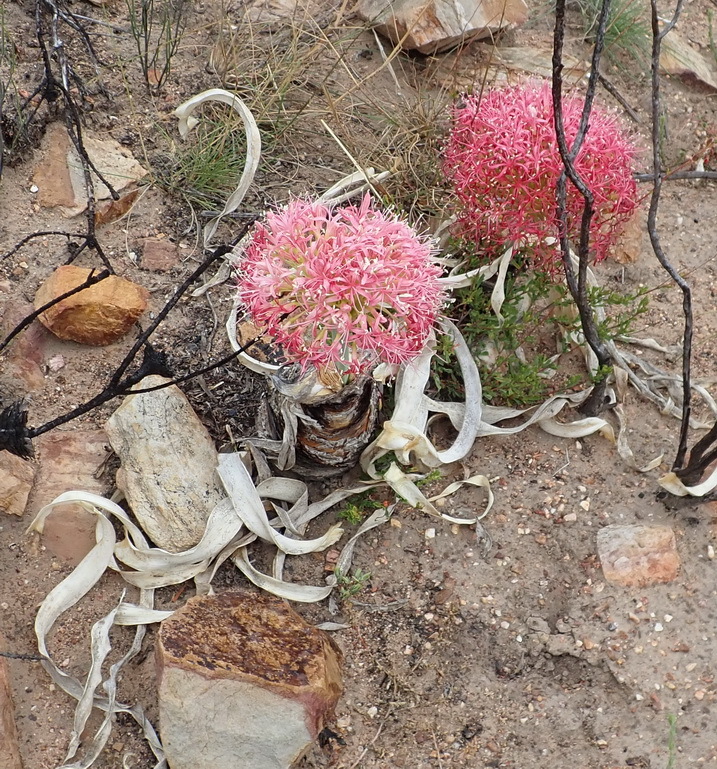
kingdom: Plantae
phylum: Tracheophyta
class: Liliopsida
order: Asparagales
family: Amaryllidaceae
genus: Boophone
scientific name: Boophone disticha
